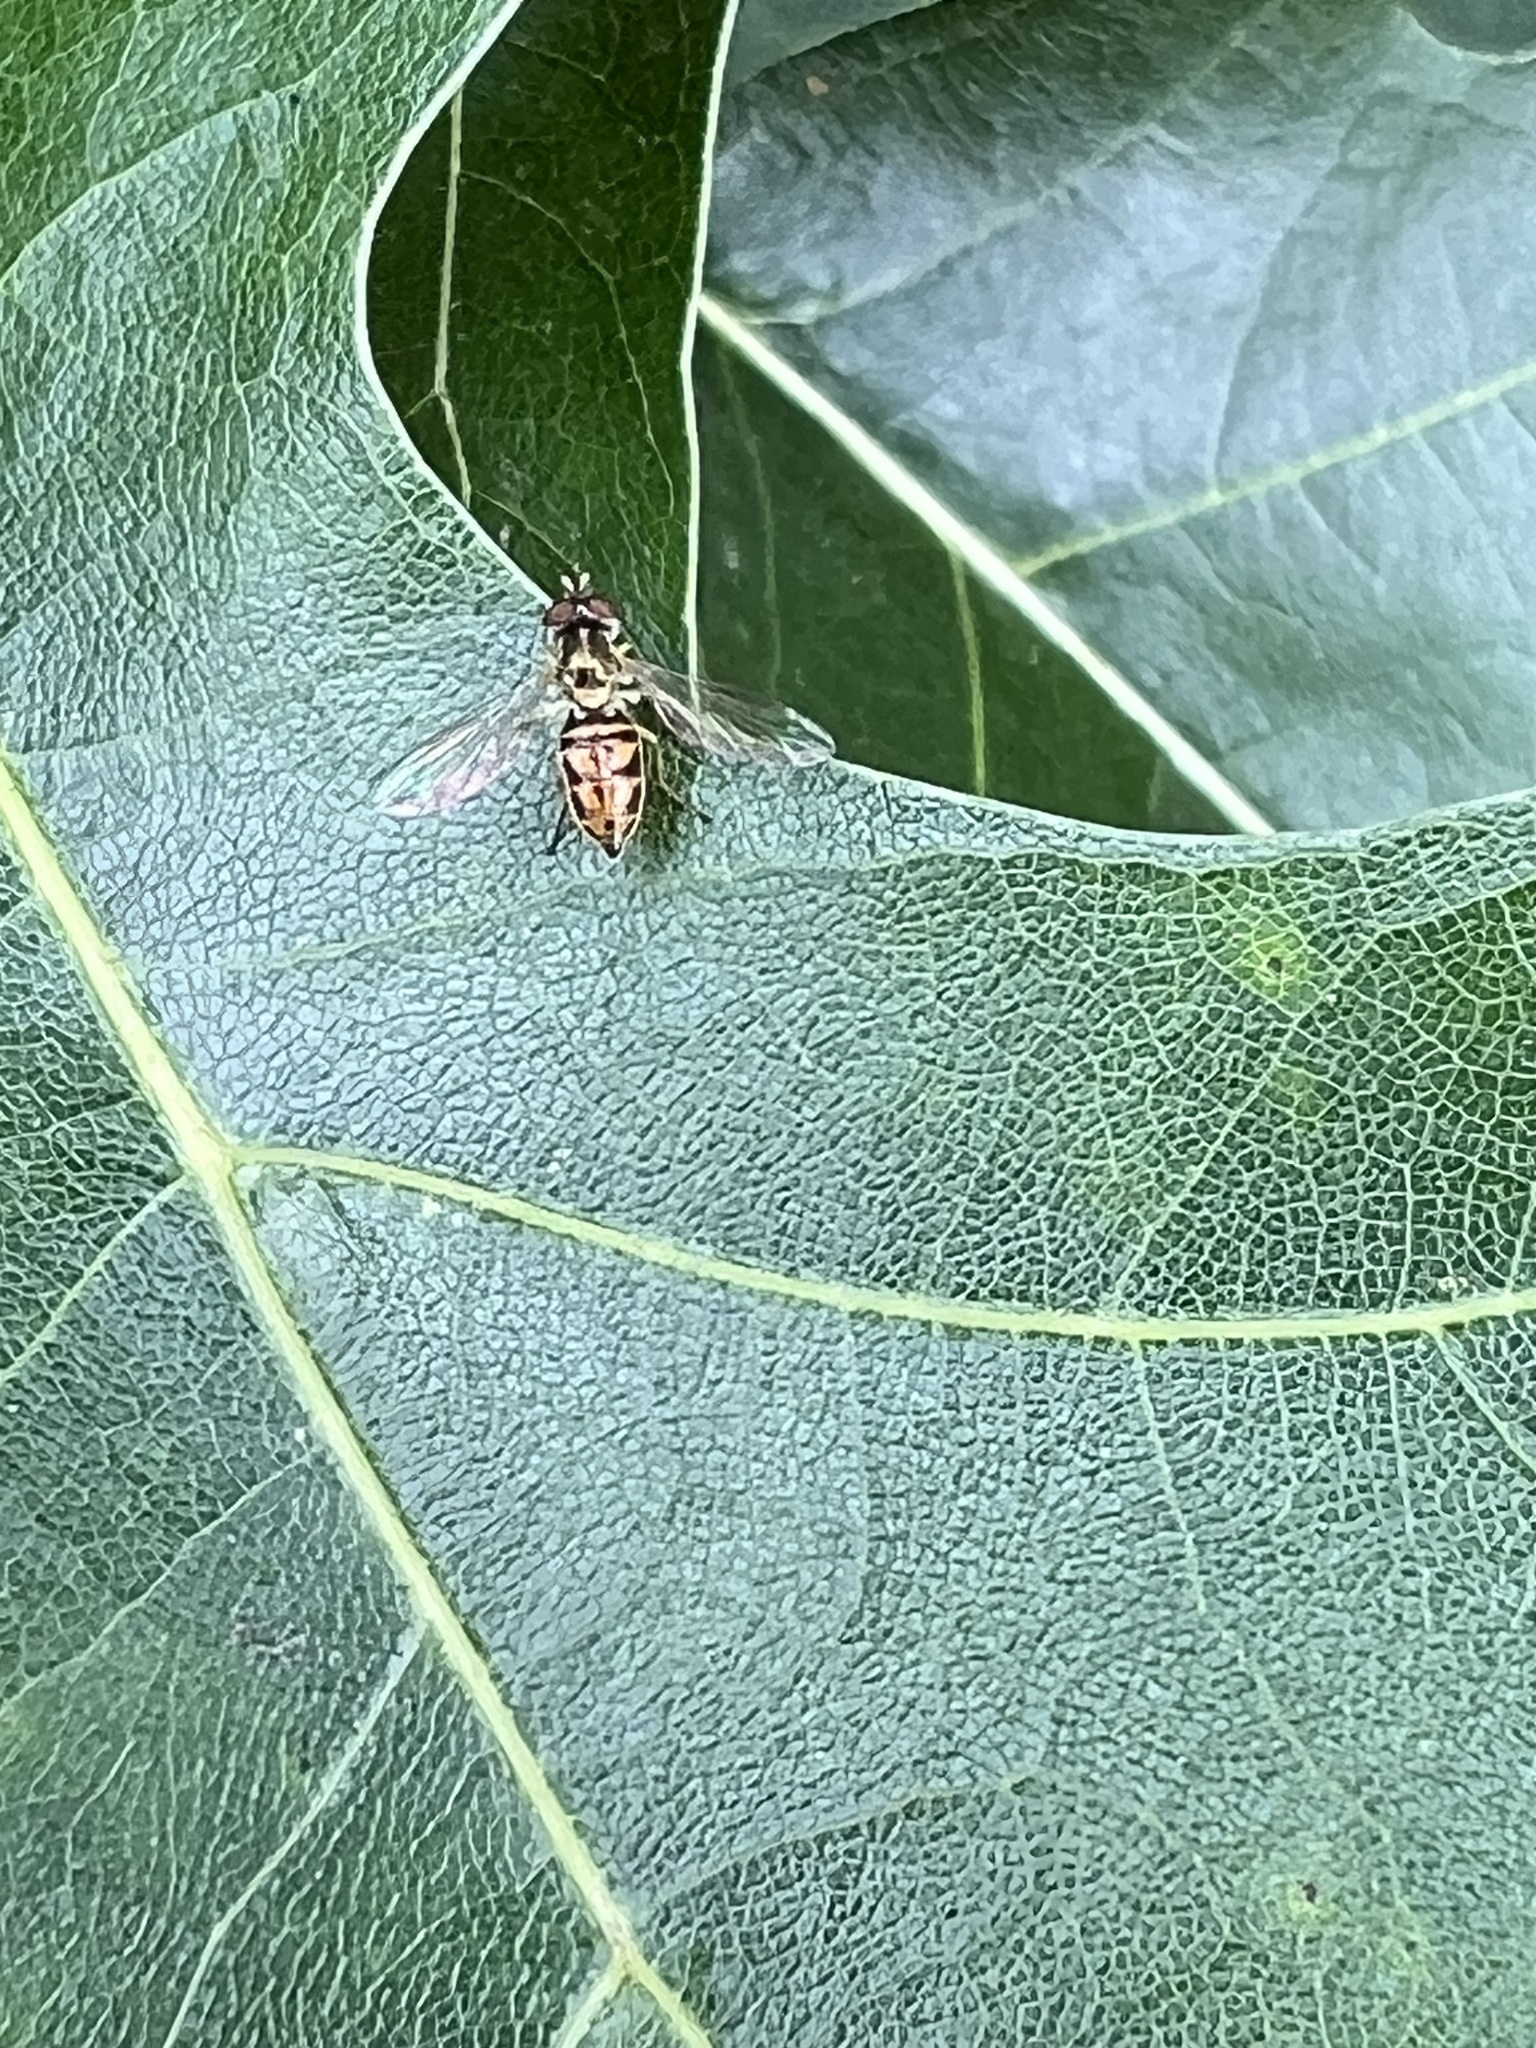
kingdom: Animalia
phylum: Arthropoda
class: Insecta
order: Diptera
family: Syrphidae
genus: Toxomerus
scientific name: Toxomerus marginatus
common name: Syrphid fly
